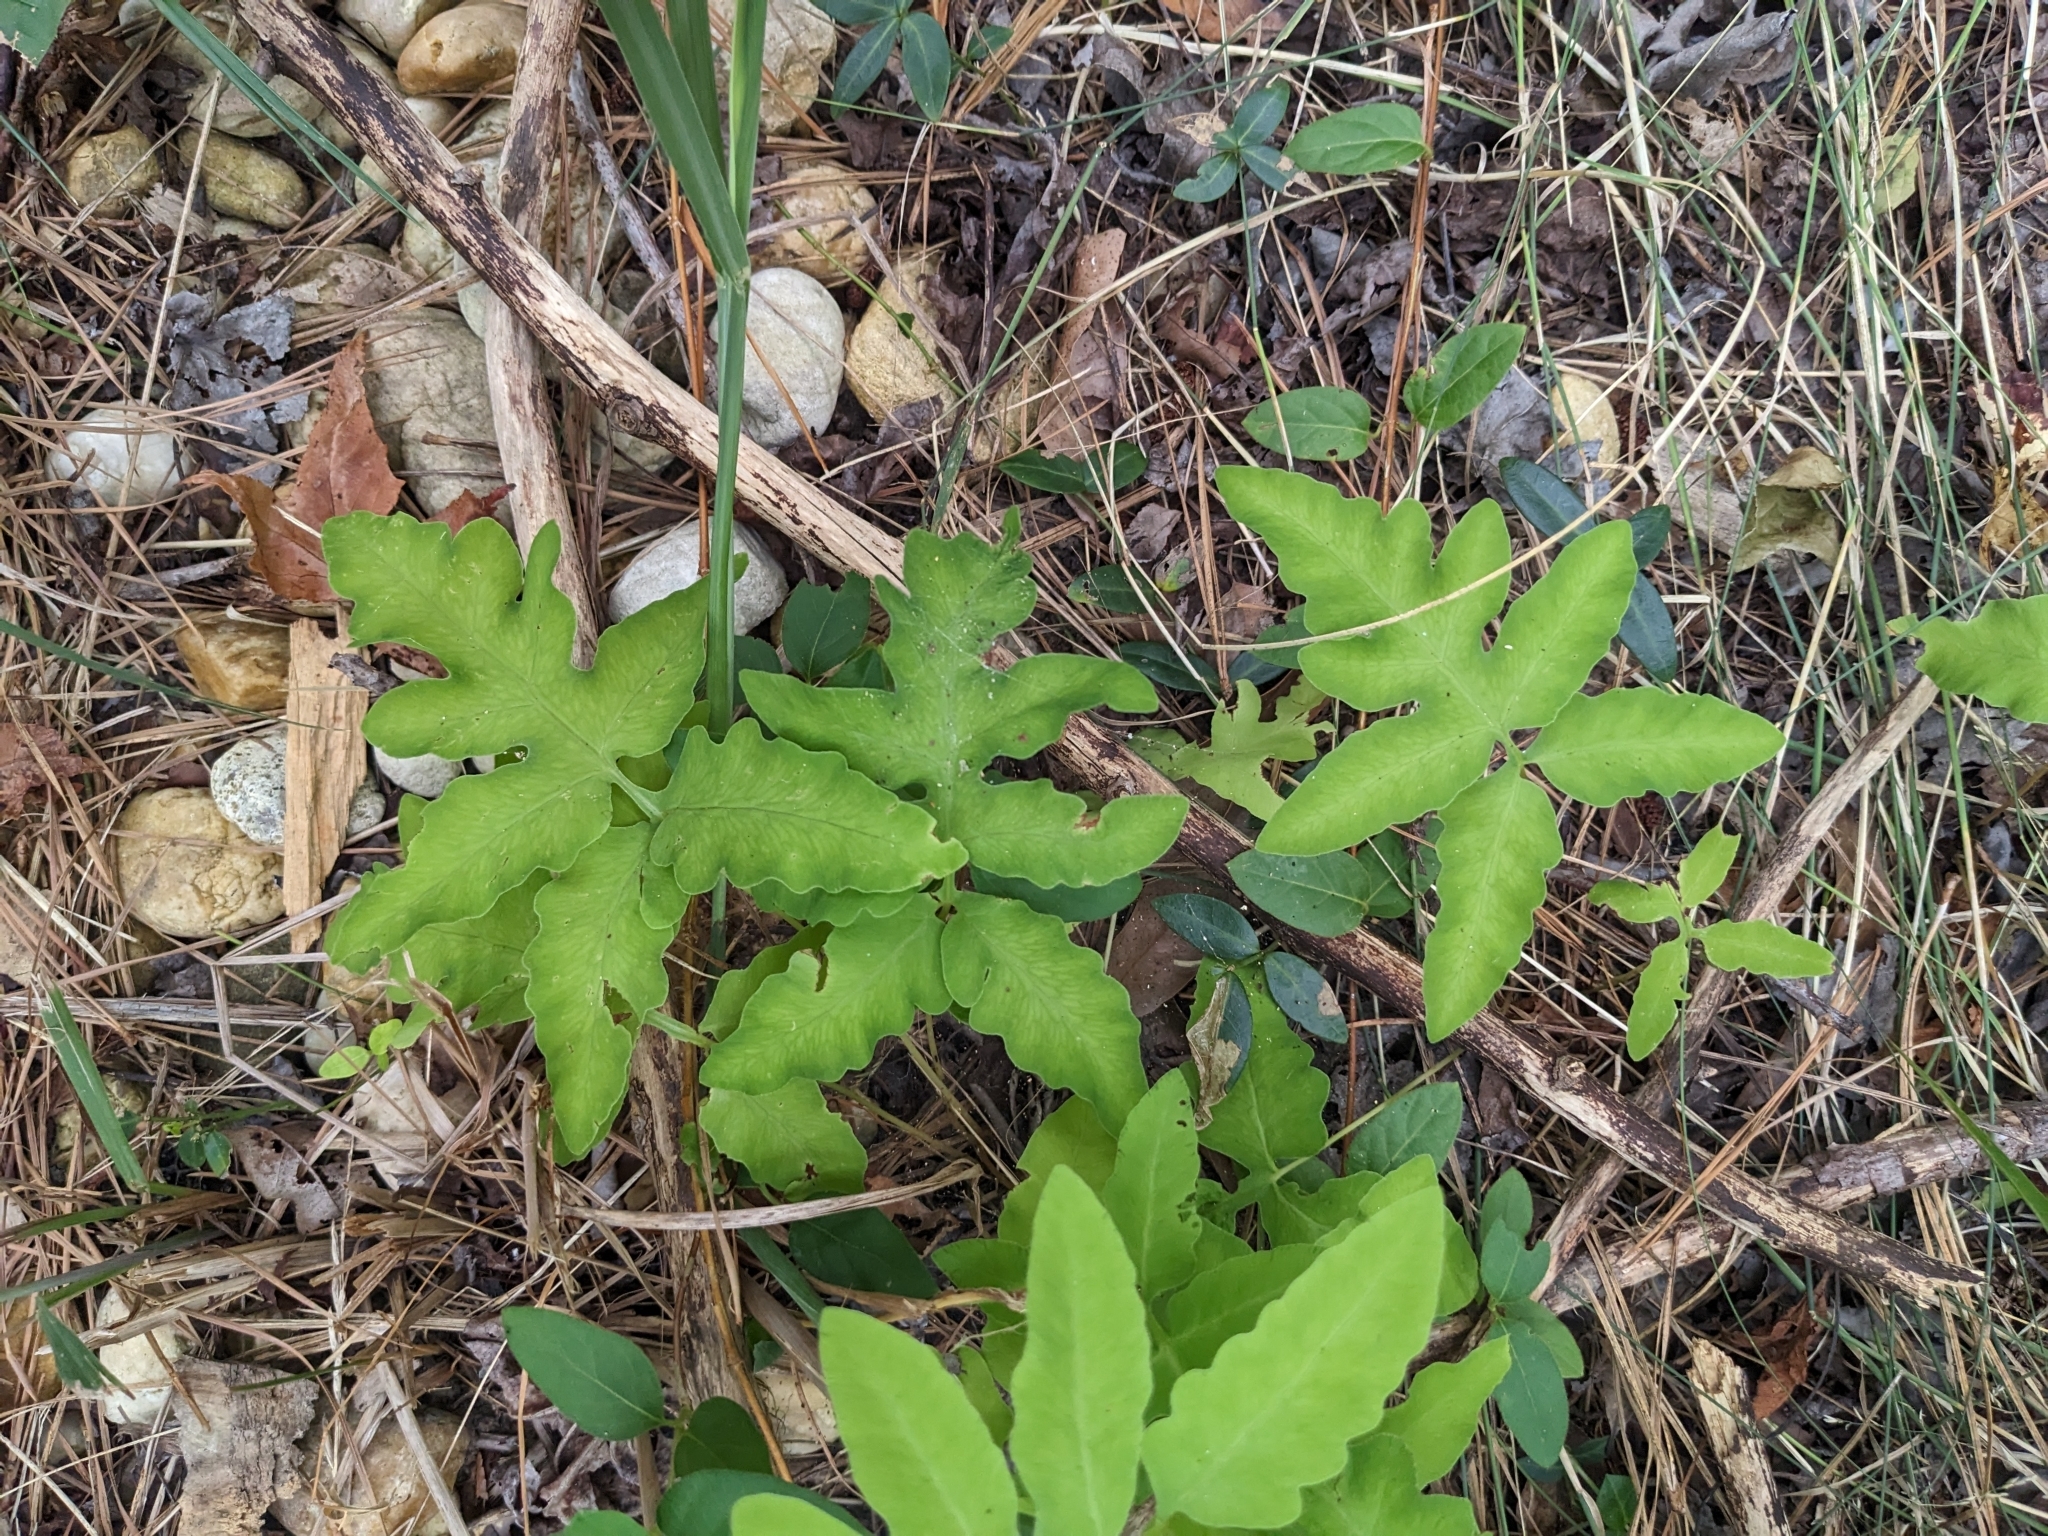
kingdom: Plantae
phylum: Tracheophyta
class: Polypodiopsida
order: Polypodiales
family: Onocleaceae
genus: Onoclea
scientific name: Onoclea sensibilis
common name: Sensitive fern
